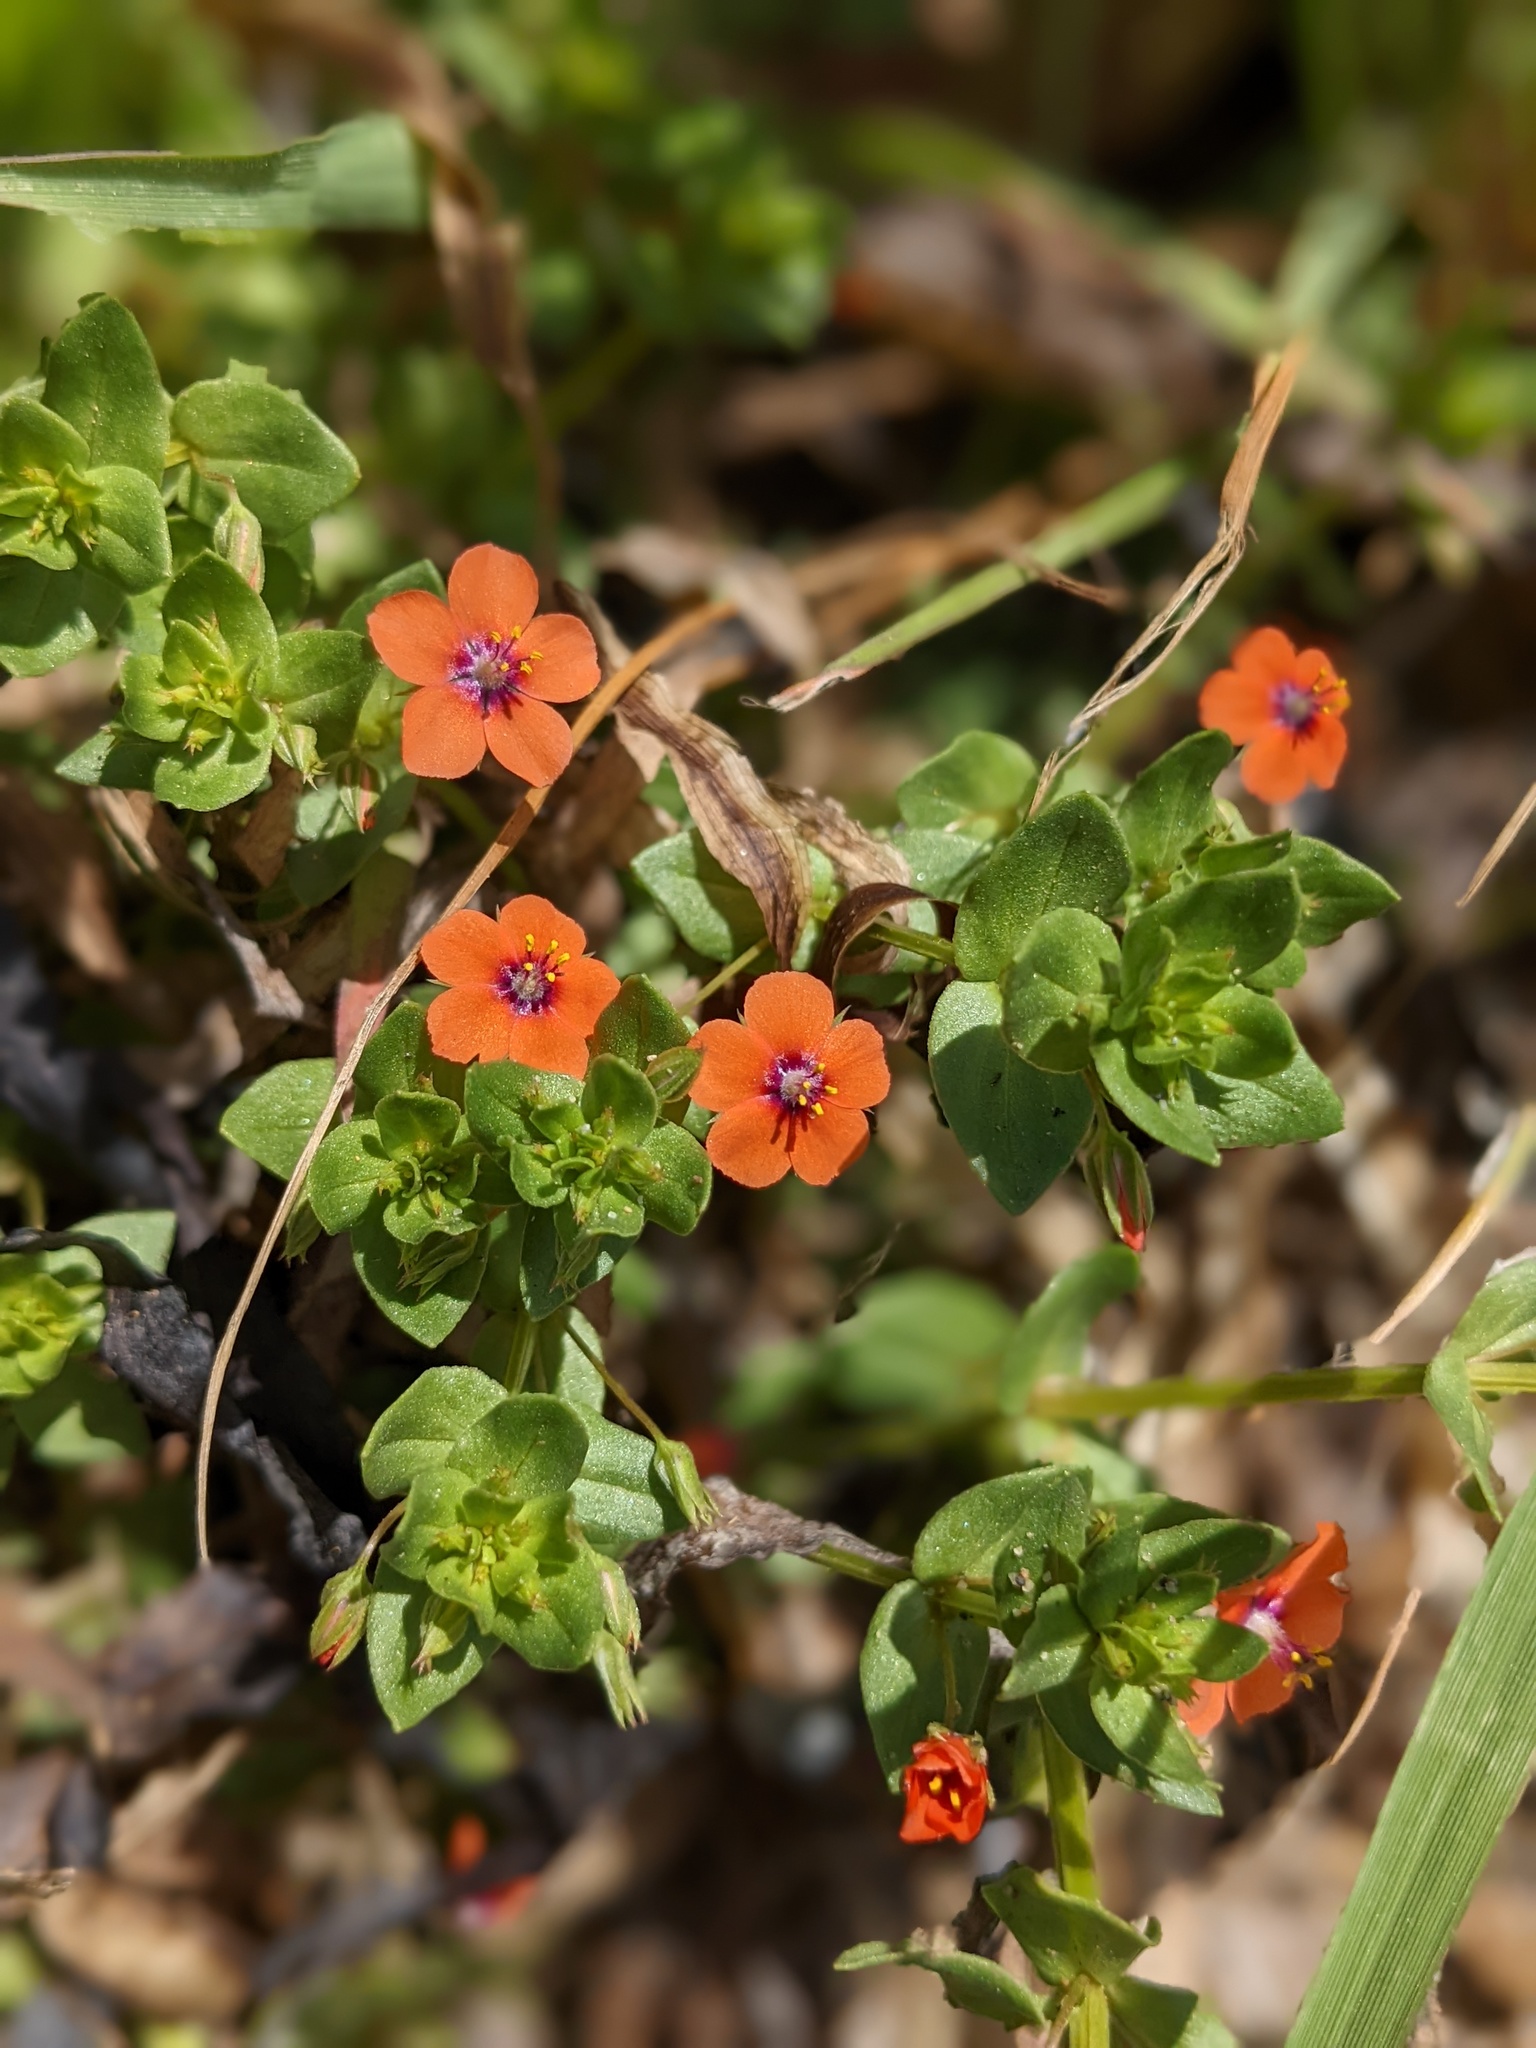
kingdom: Plantae
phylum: Tracheophyta
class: Magnoliopsida
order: Ericales
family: Primulaceae
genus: Lysimachia
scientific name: Lysimachia arvensis
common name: Scarlet pimpernel
